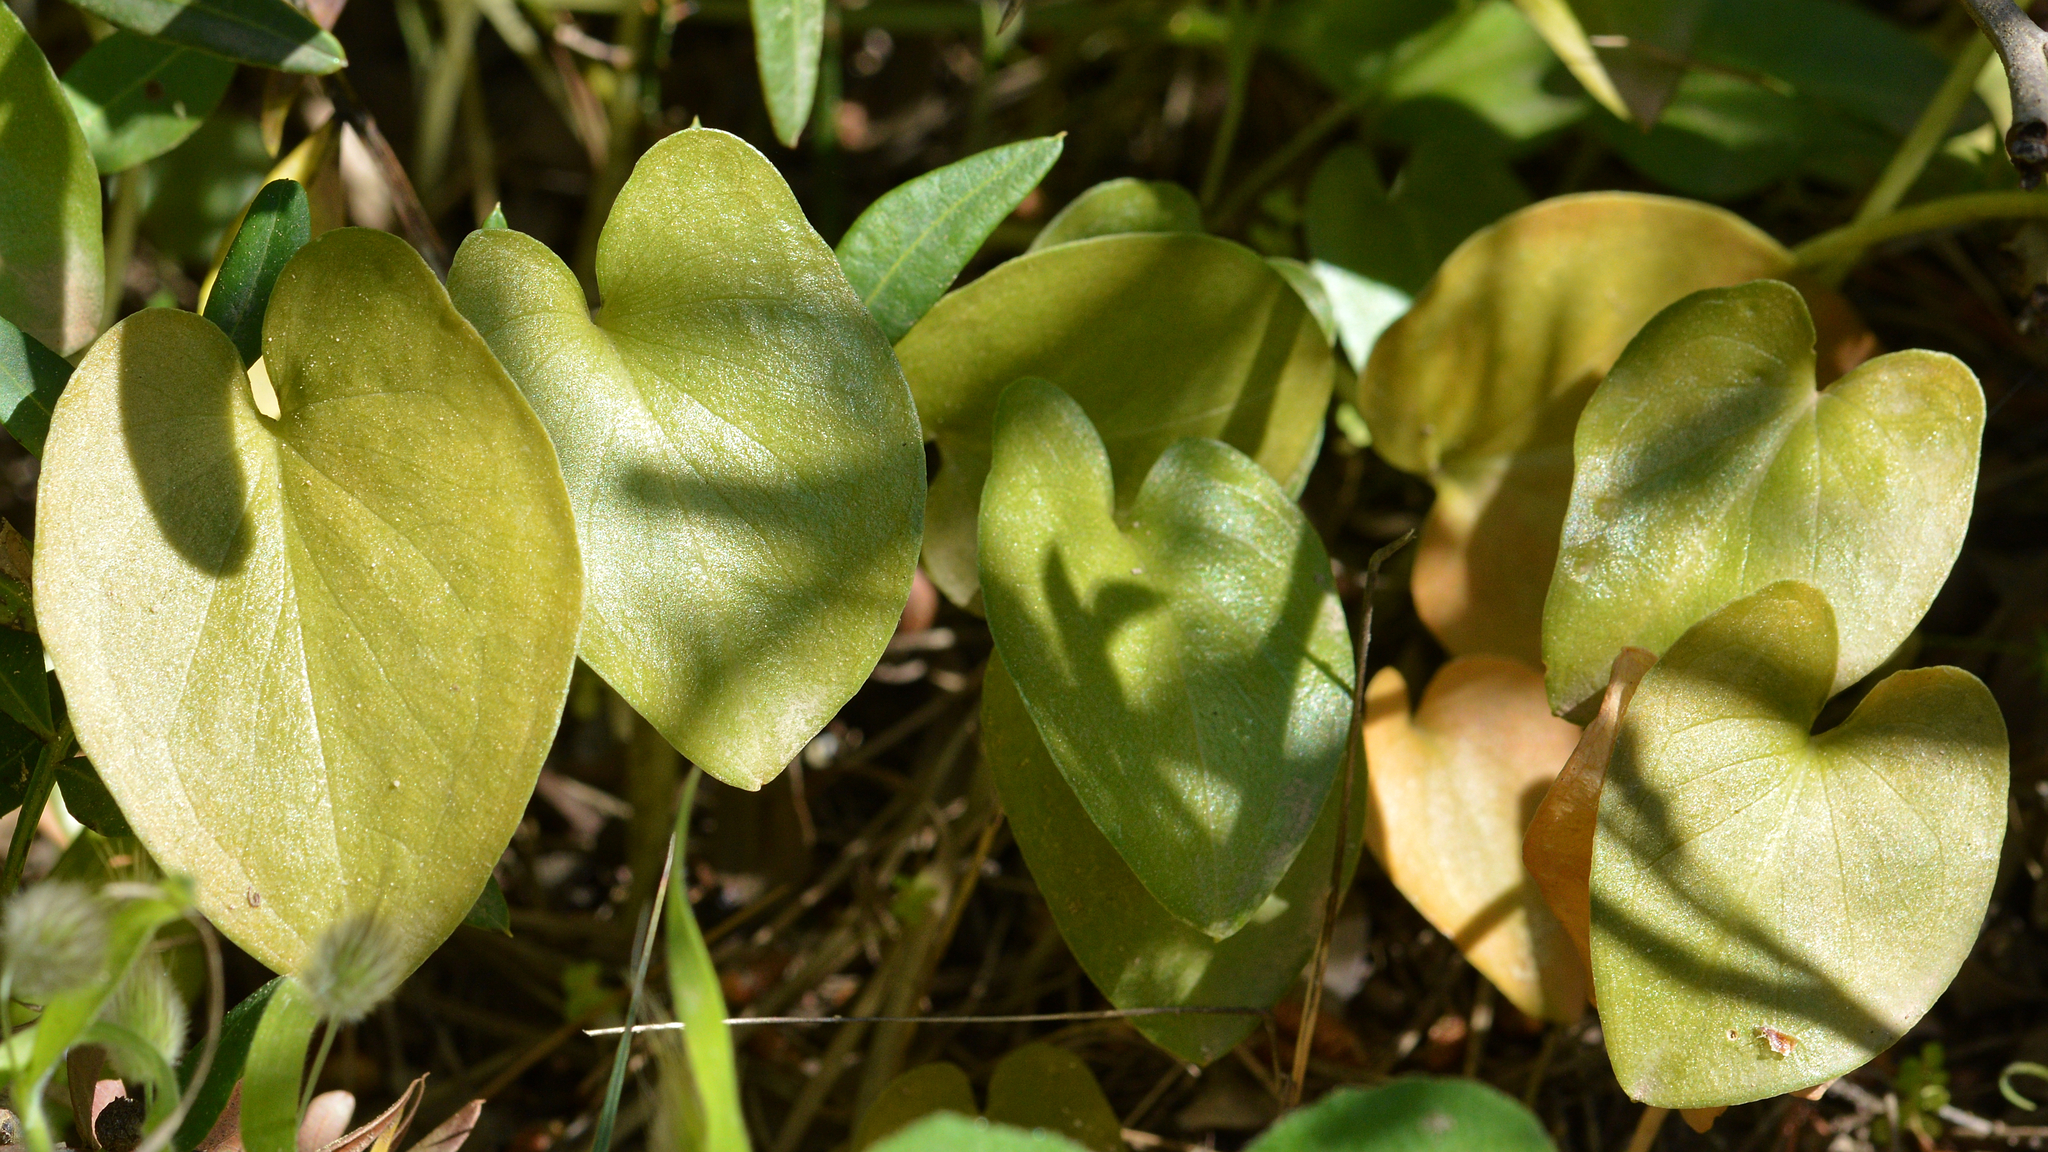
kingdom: Plantae
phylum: Tracheophyta
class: Liliopsida
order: Alismatales
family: Araceae
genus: Arisarum
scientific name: Arisarum vulgare
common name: Common arisarum
